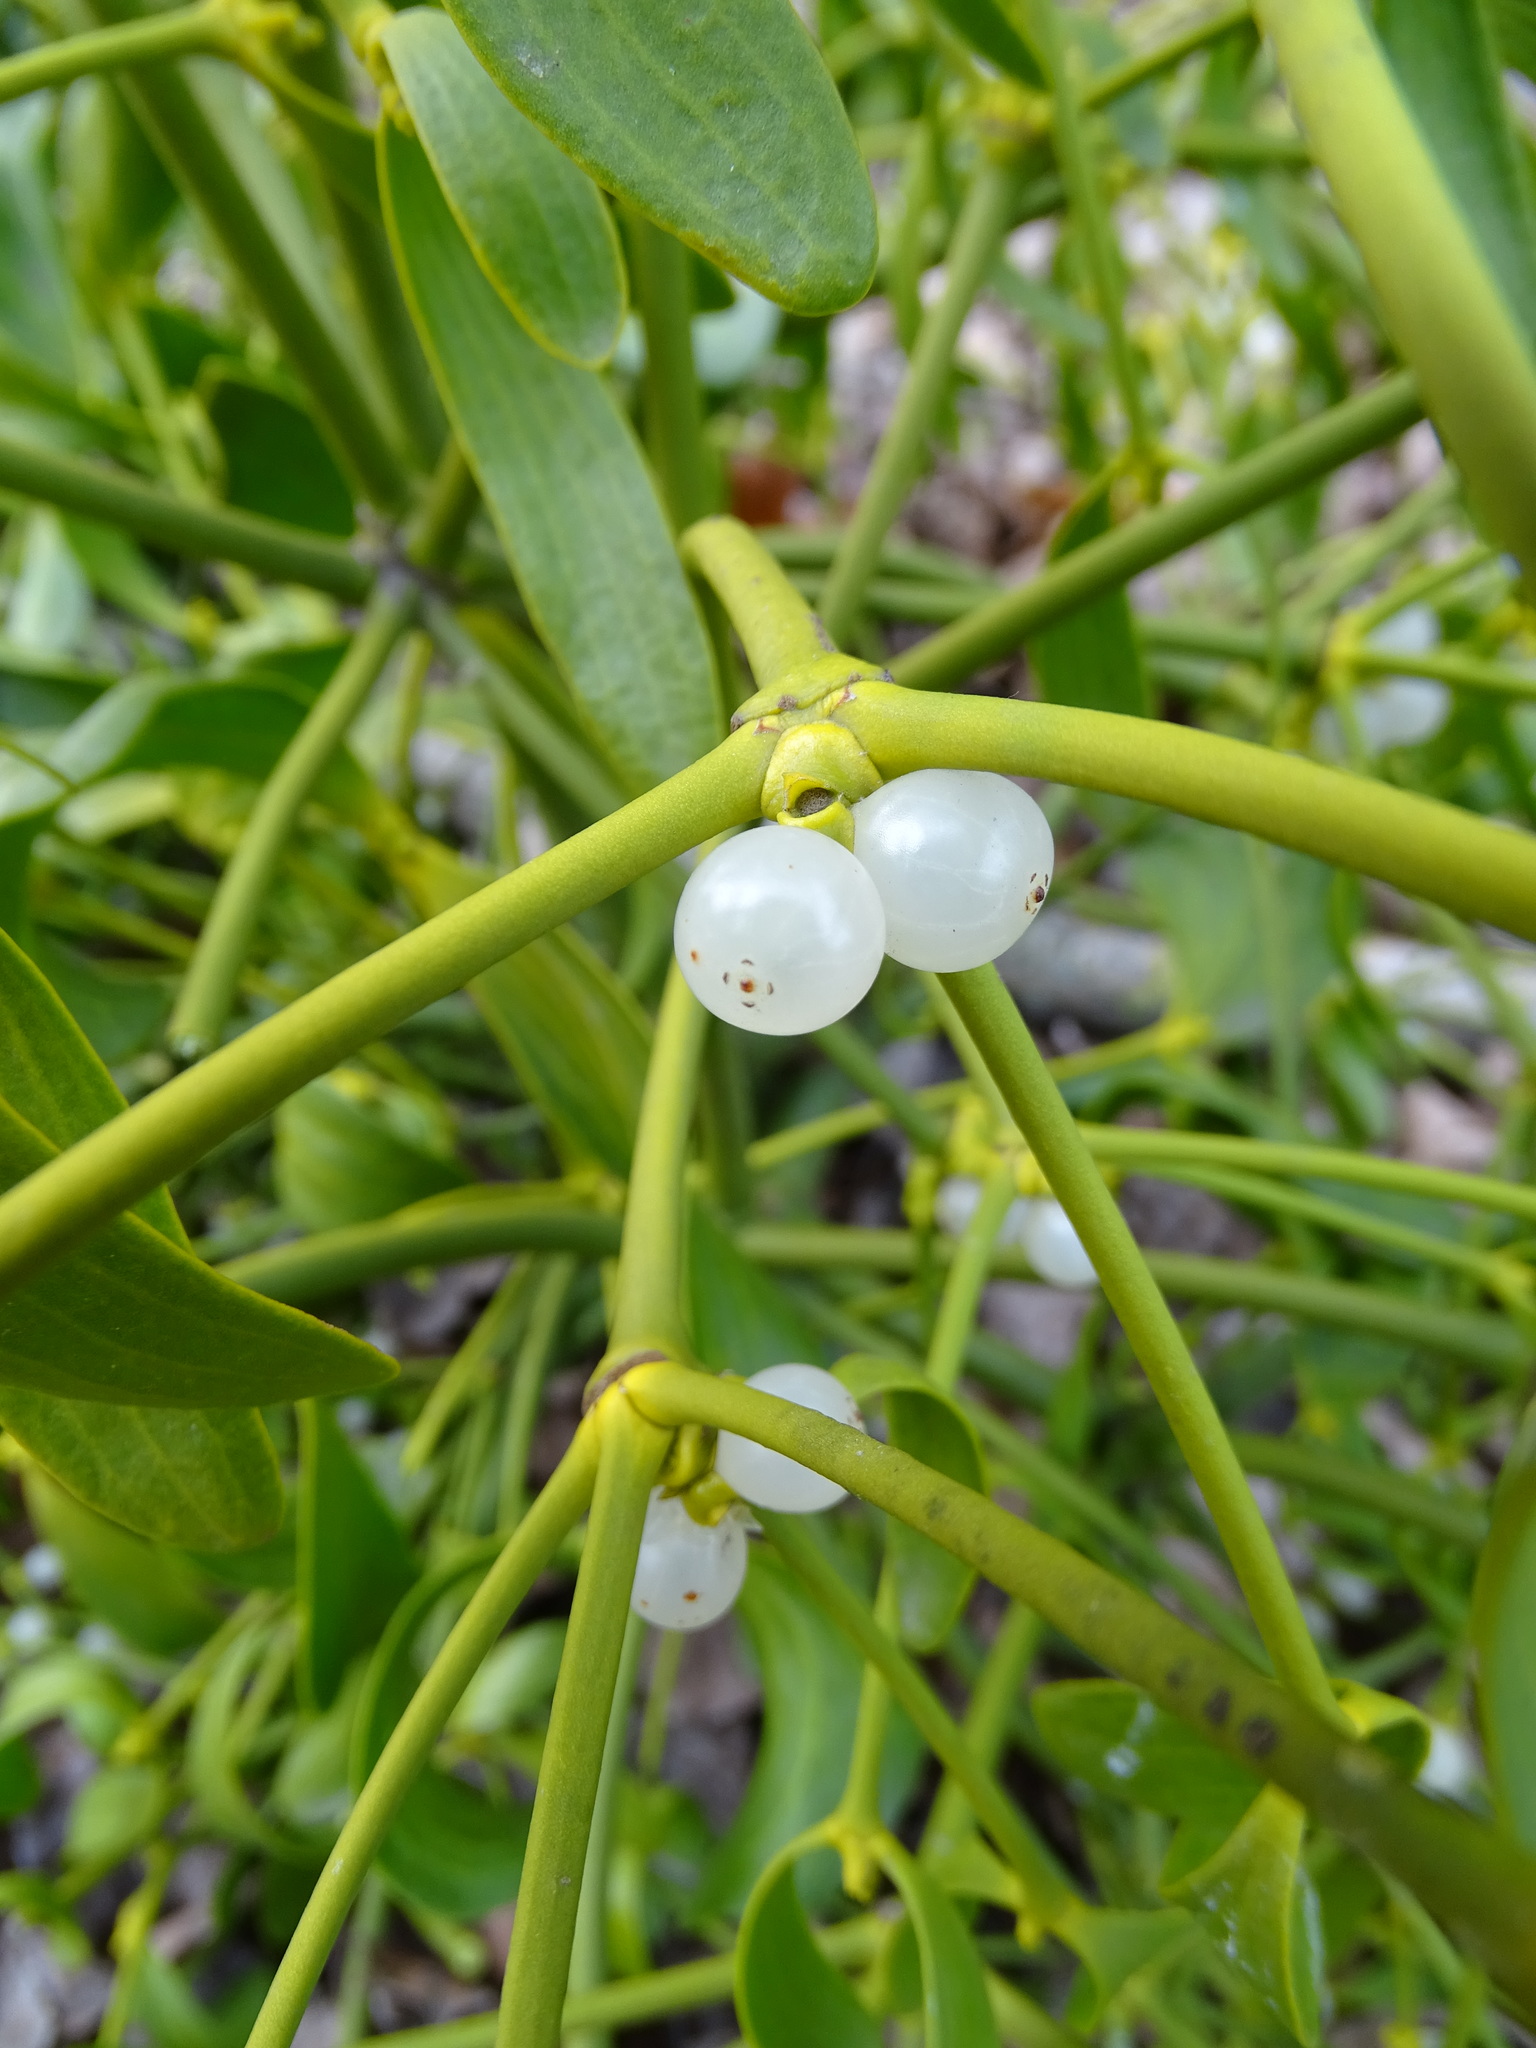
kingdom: Plantae
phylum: Tracheophyta
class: Magnoliopsida
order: Santalales
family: Viscaceae
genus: Viscum
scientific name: Viscum album
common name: Mistletoe
